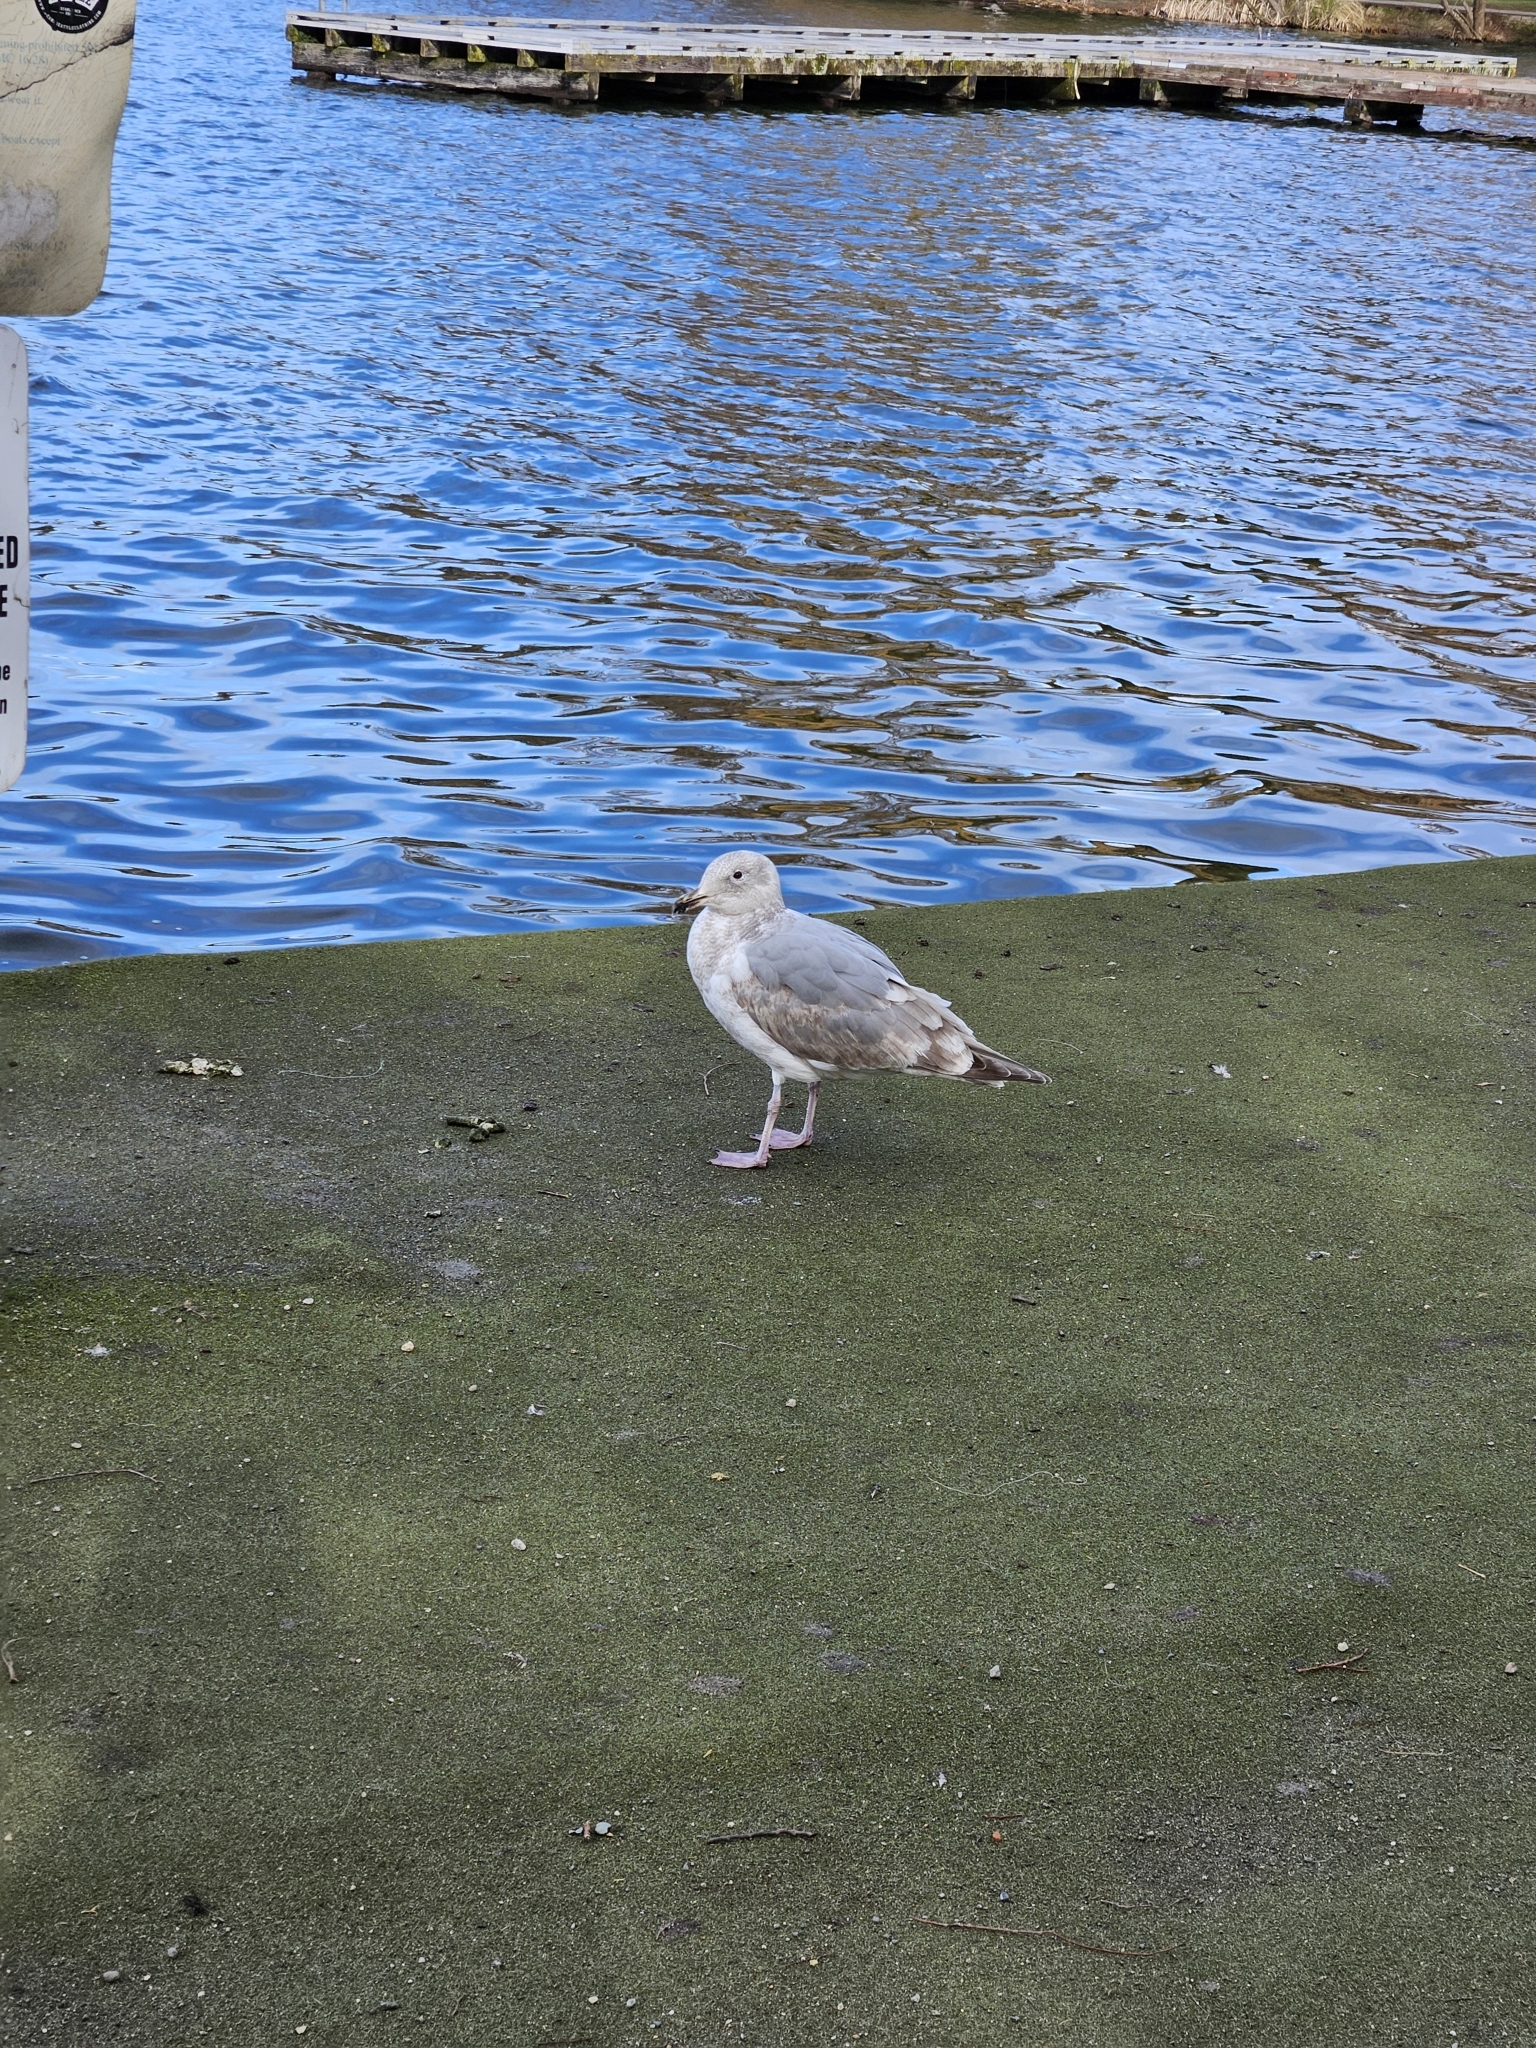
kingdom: Animalia
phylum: Chordata
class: Aves
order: Charadriiformes
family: Laridae
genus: Larus
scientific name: Larus
